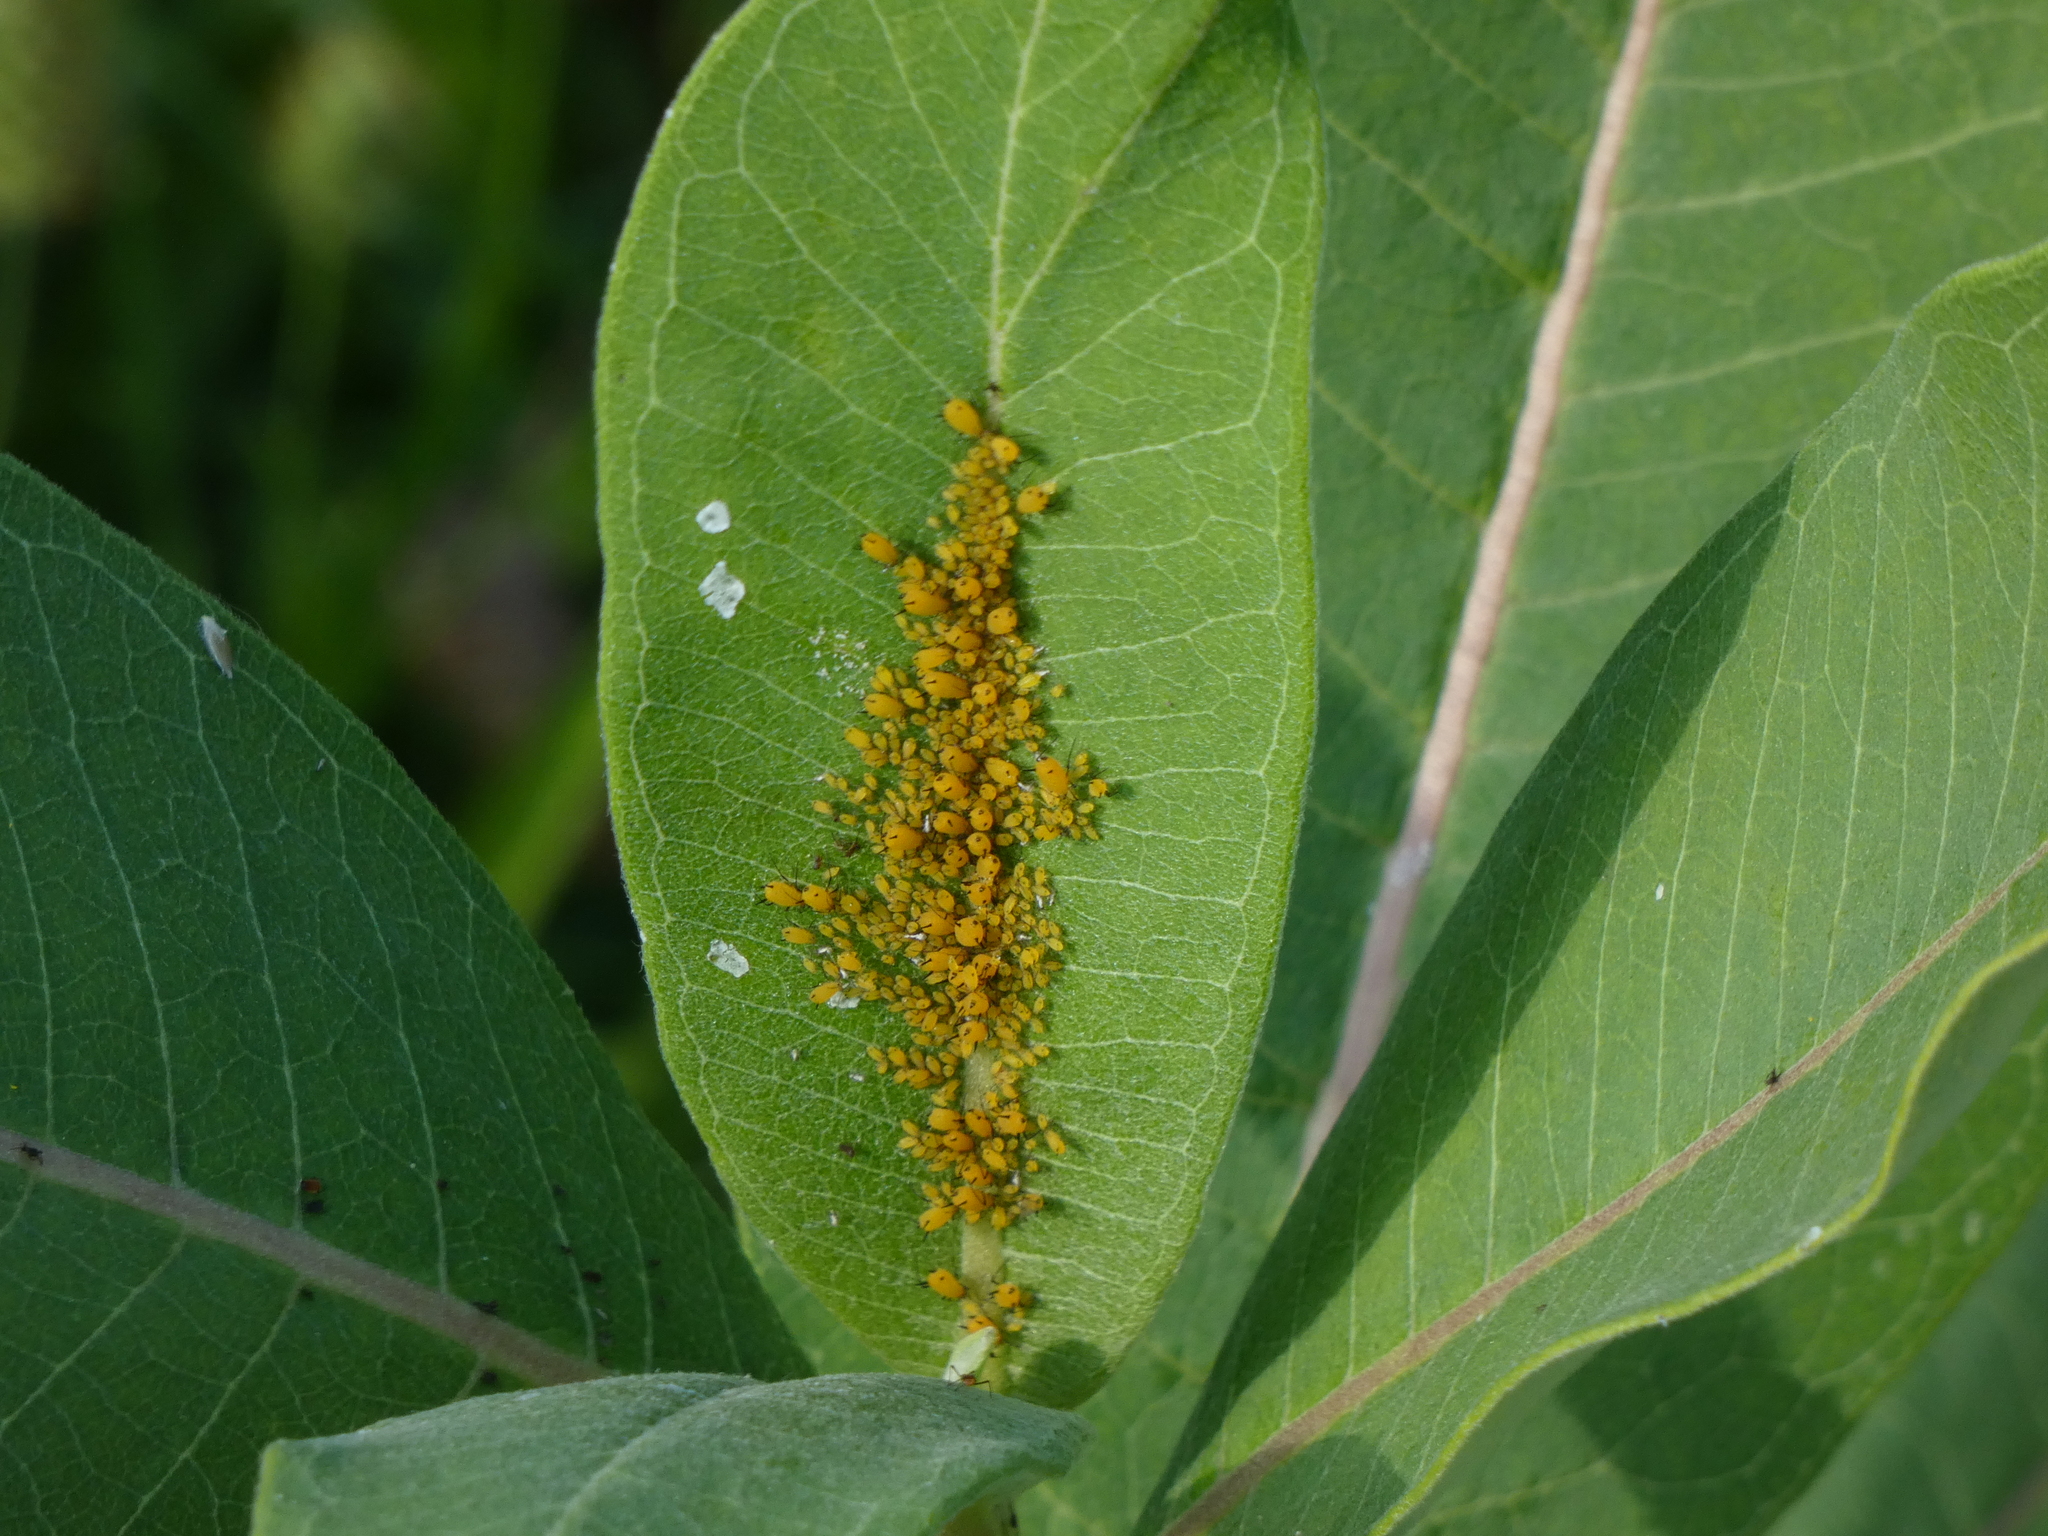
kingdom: Animalia
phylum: Arthropoda
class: Insecta
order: Hemiptera
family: Aphididae
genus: Aphis
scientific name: Aphis nerii
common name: Oleander aphid
